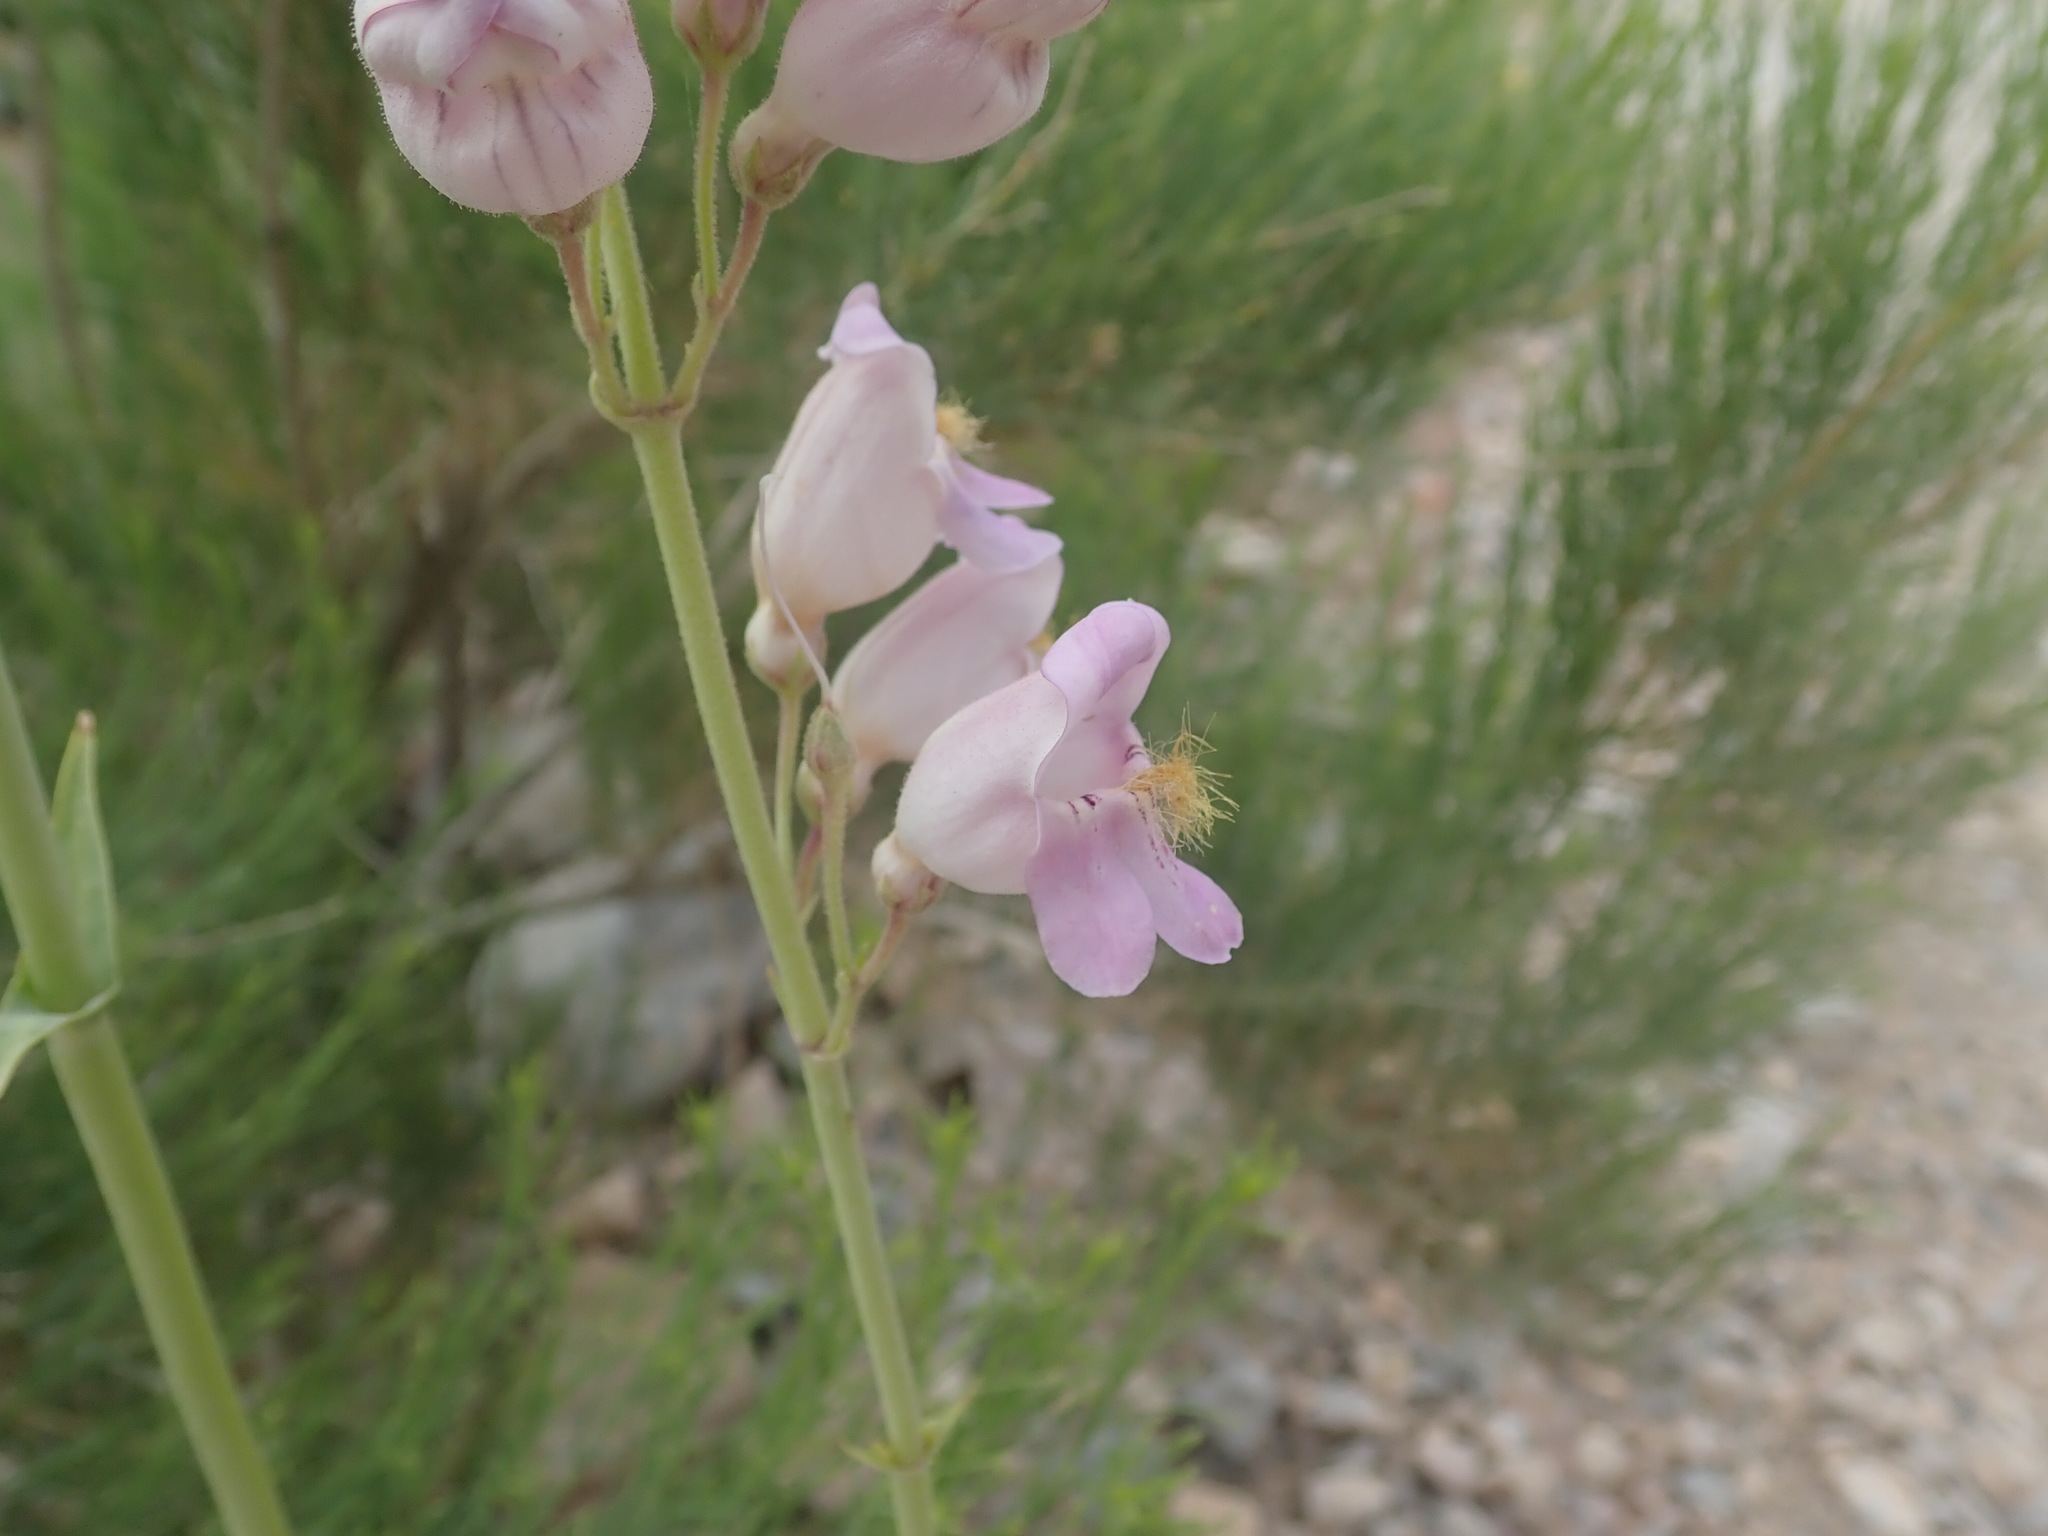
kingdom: Plantae
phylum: Tracheophyta
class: Magnoliopsida
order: Lamiales
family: Plantaginaceae
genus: Penstemon
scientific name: Penstemon palmeri
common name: Palmer penstemon
